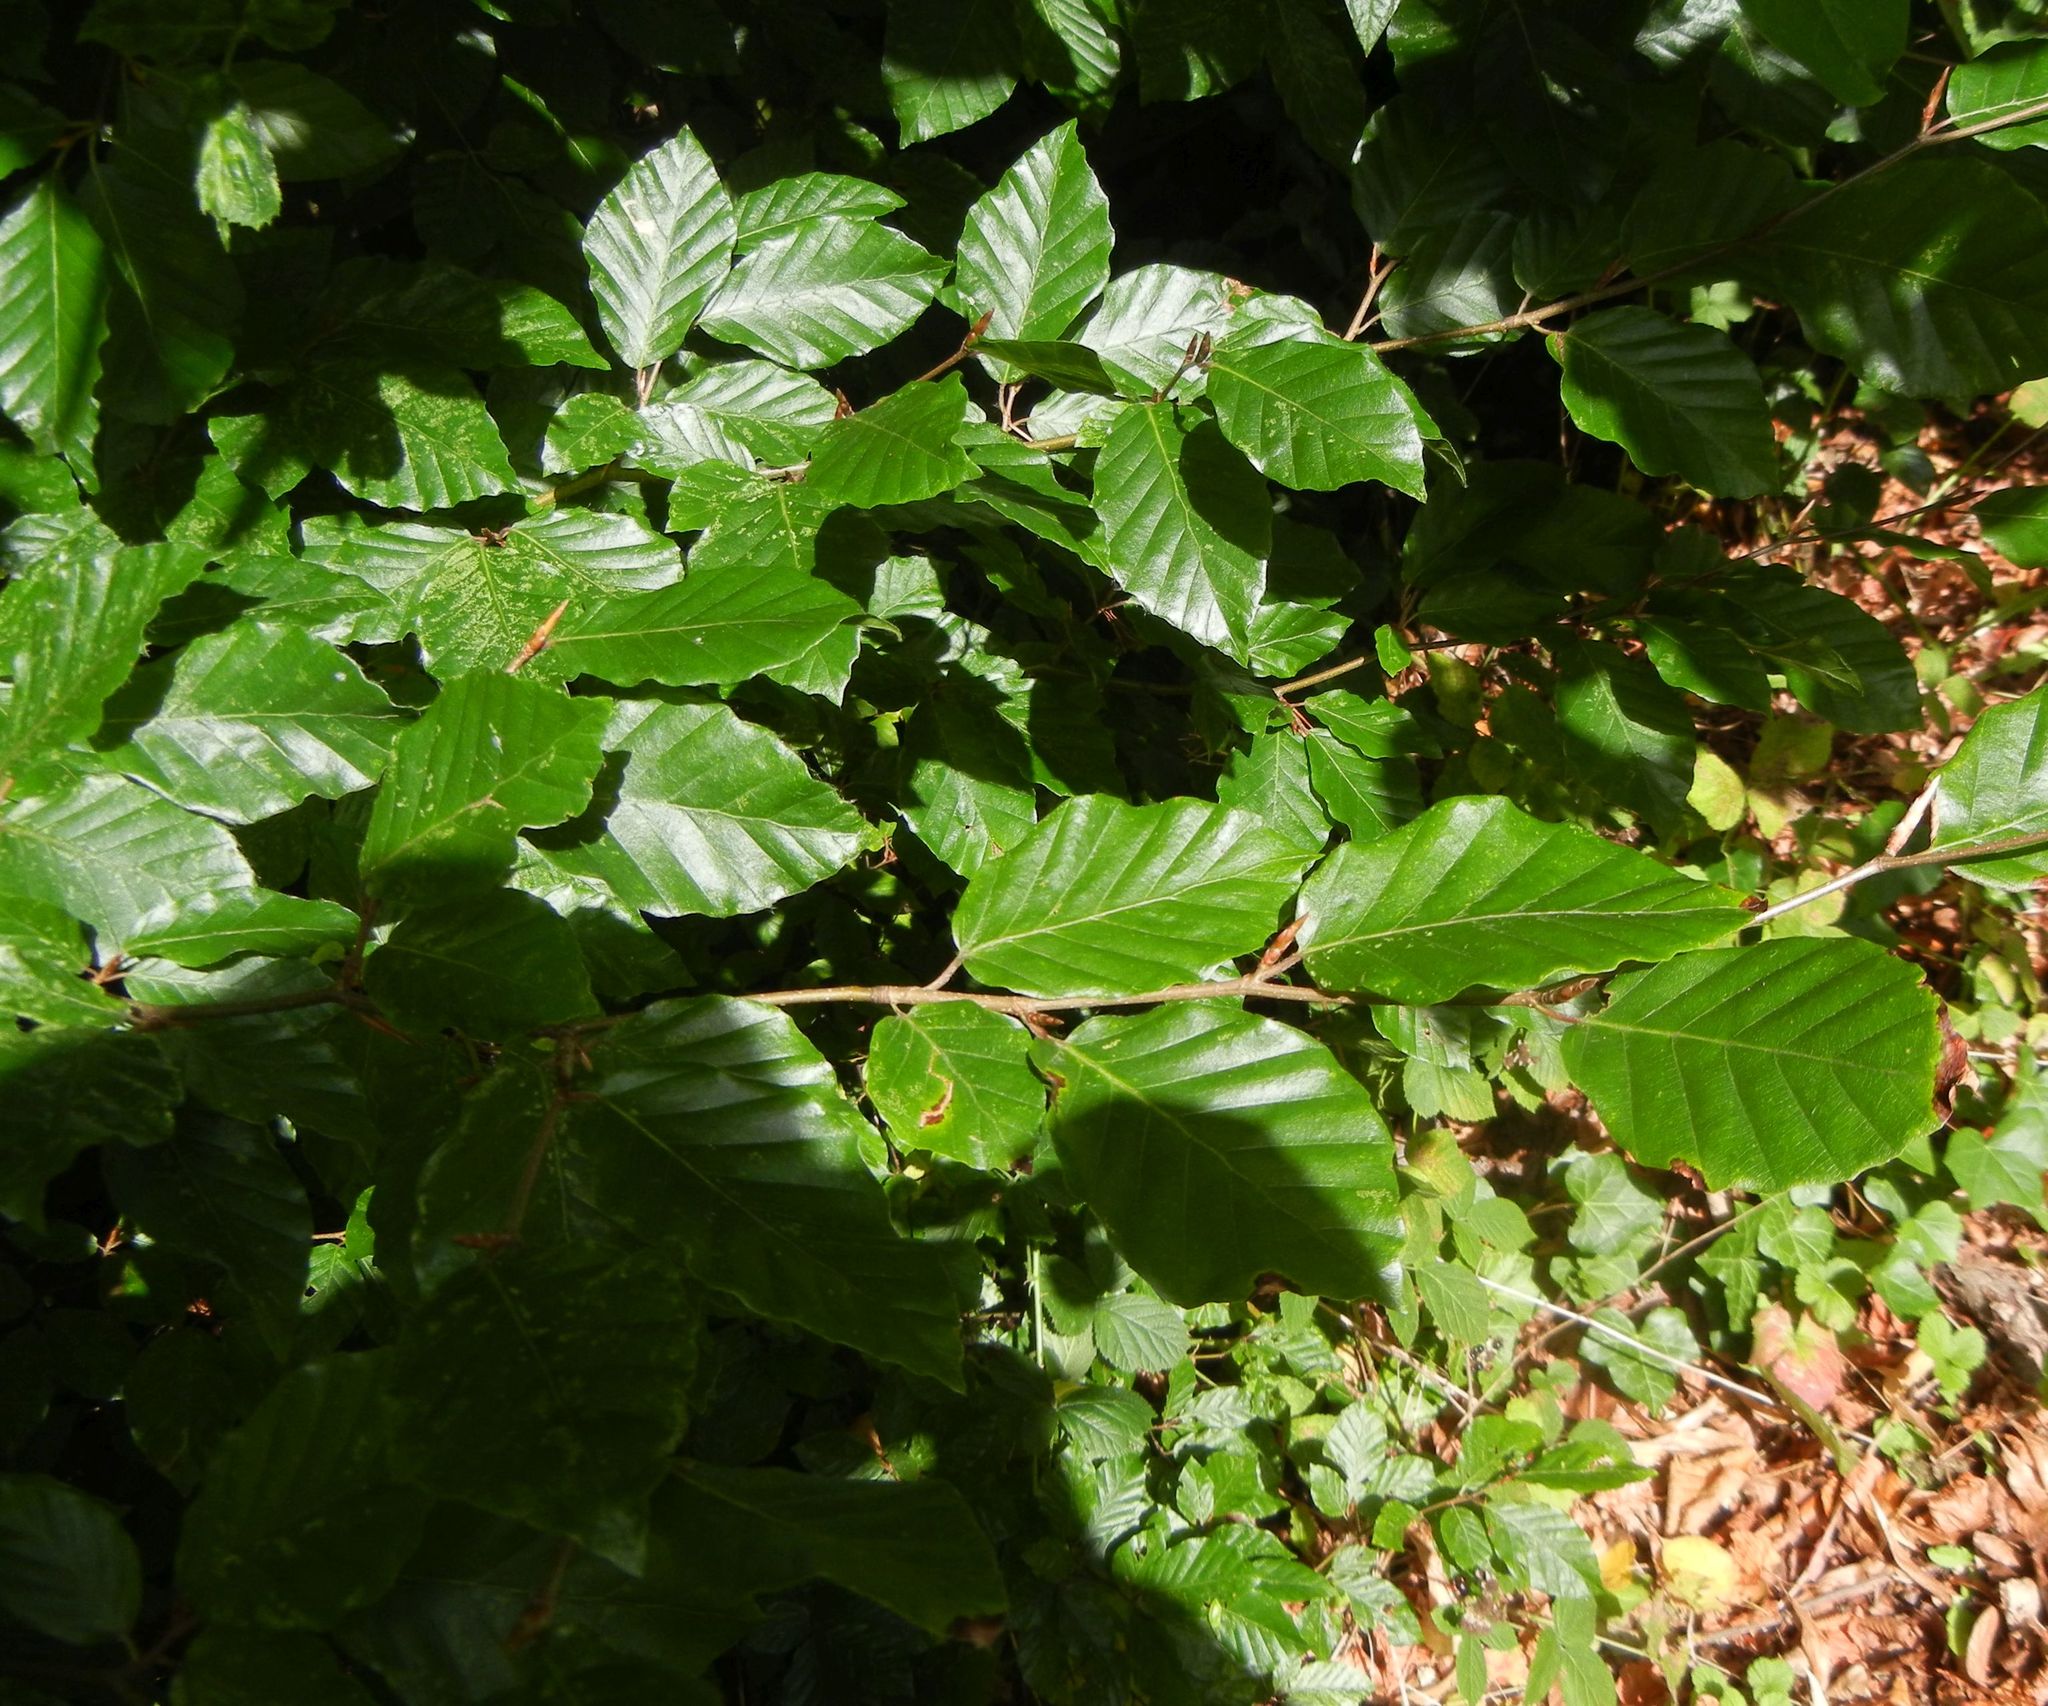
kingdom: Plantae
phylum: Tracheophyta
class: Magnoliopsida
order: Fagales
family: Fagaceae
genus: Fagus
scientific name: Fagus sylvatica
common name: Beech
